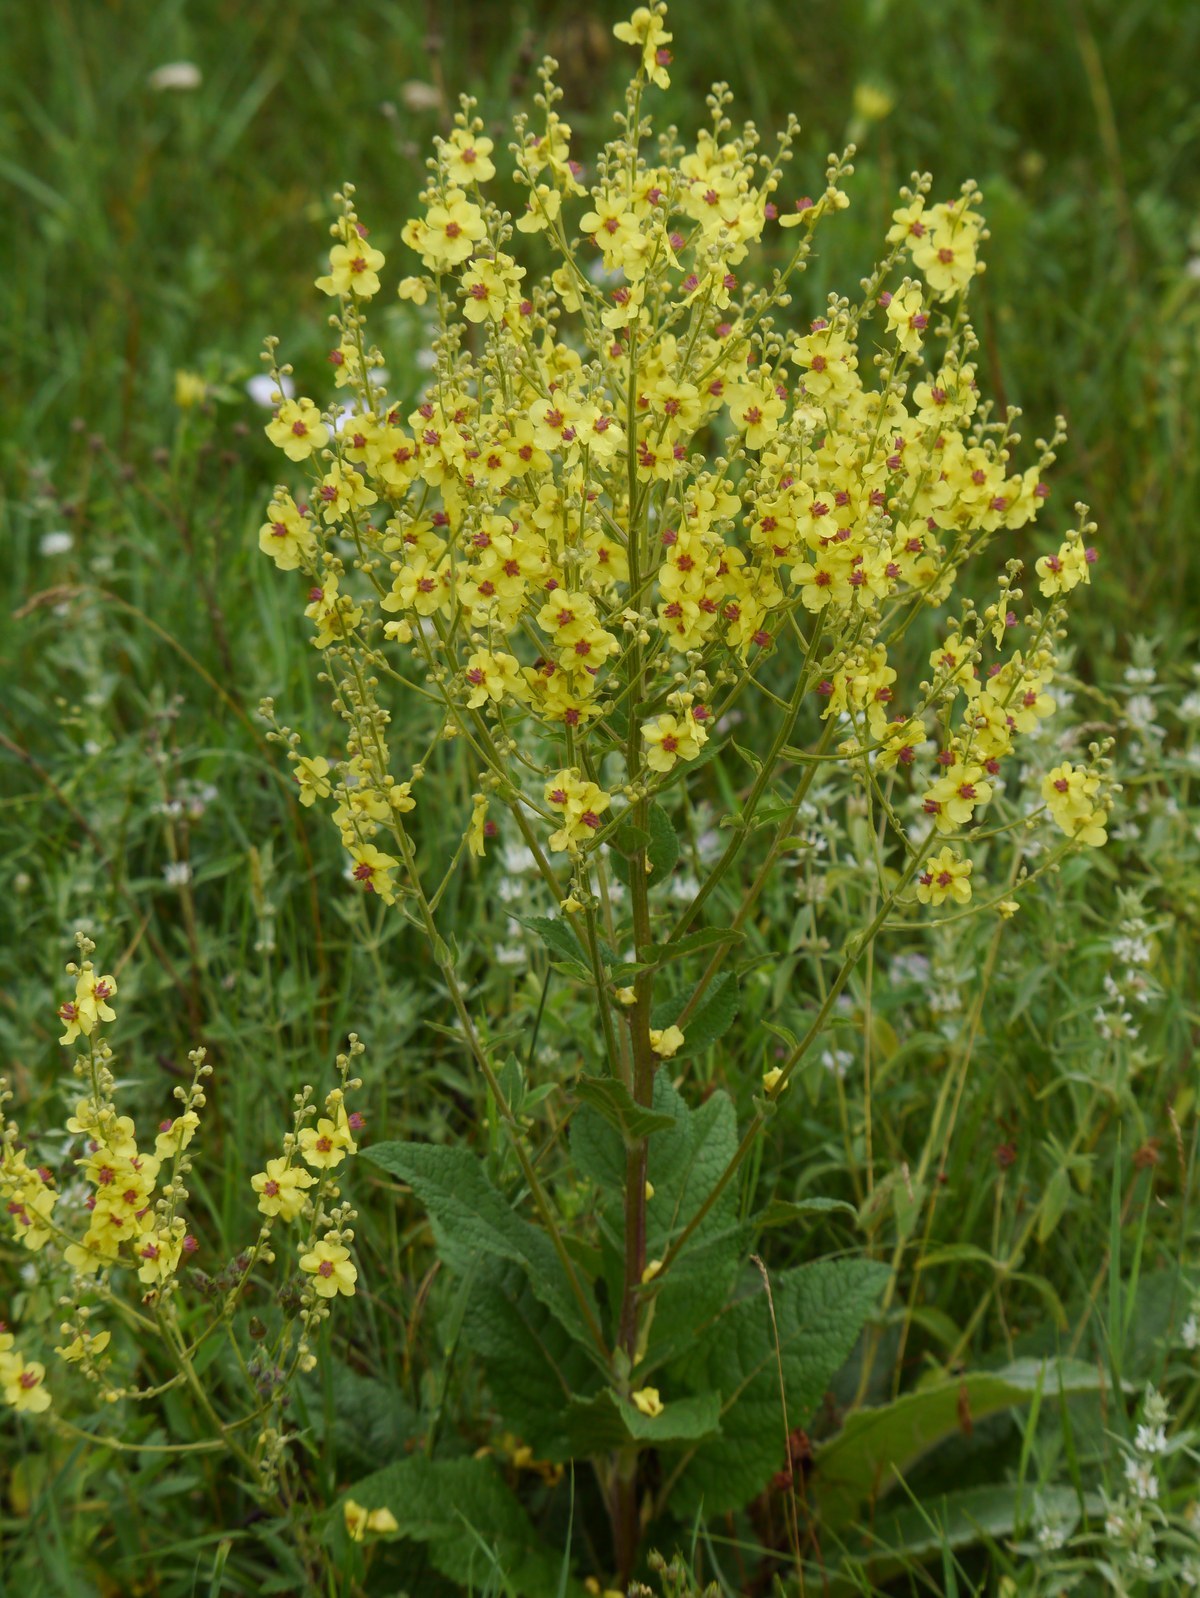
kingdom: Plantae
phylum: Tracheophyta
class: Magnoliopsida
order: Lamiales
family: Scrophulariaceae
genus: Verbascum
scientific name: Verbascum chaixii
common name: Nettle-leaved mullein
